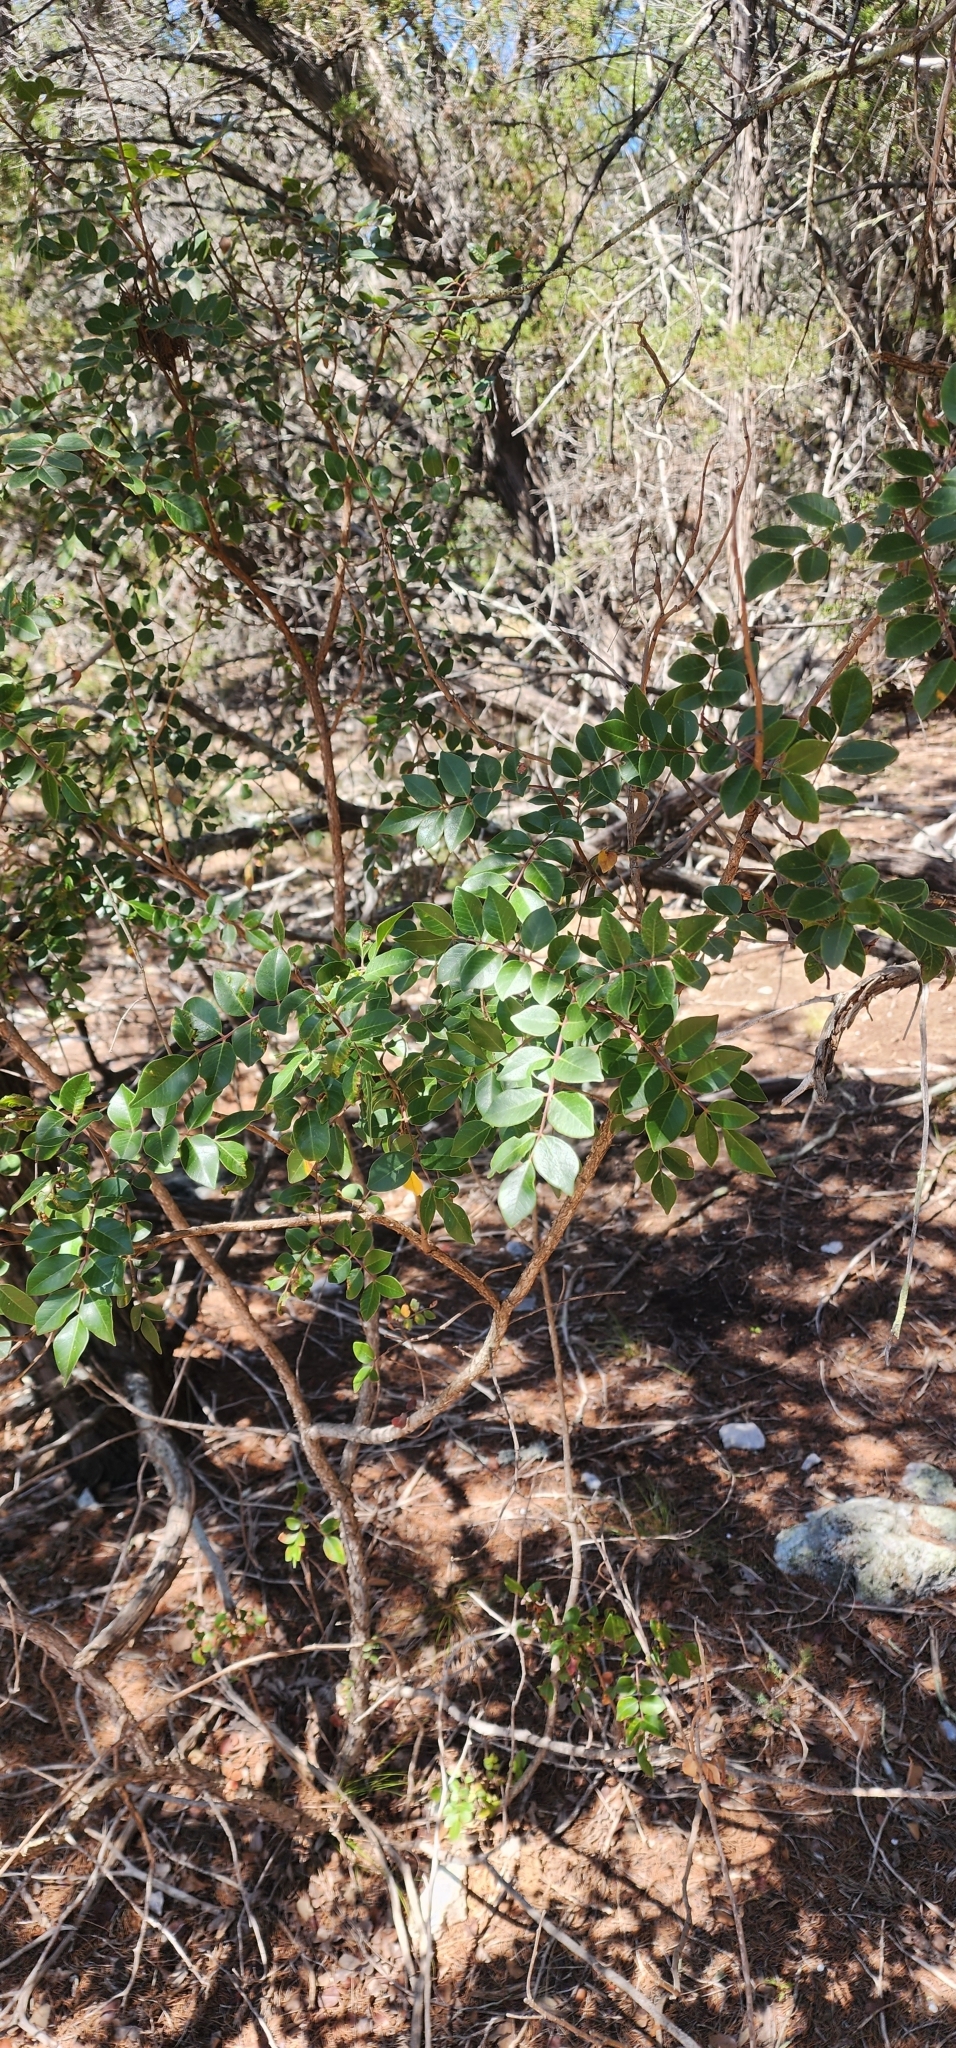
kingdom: Plantae
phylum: Tracheophyta
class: Magnoliopsida
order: Sapindales
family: Anacardiaceae
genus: Rhus
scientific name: Rhus virens
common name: Evergreen sumac
